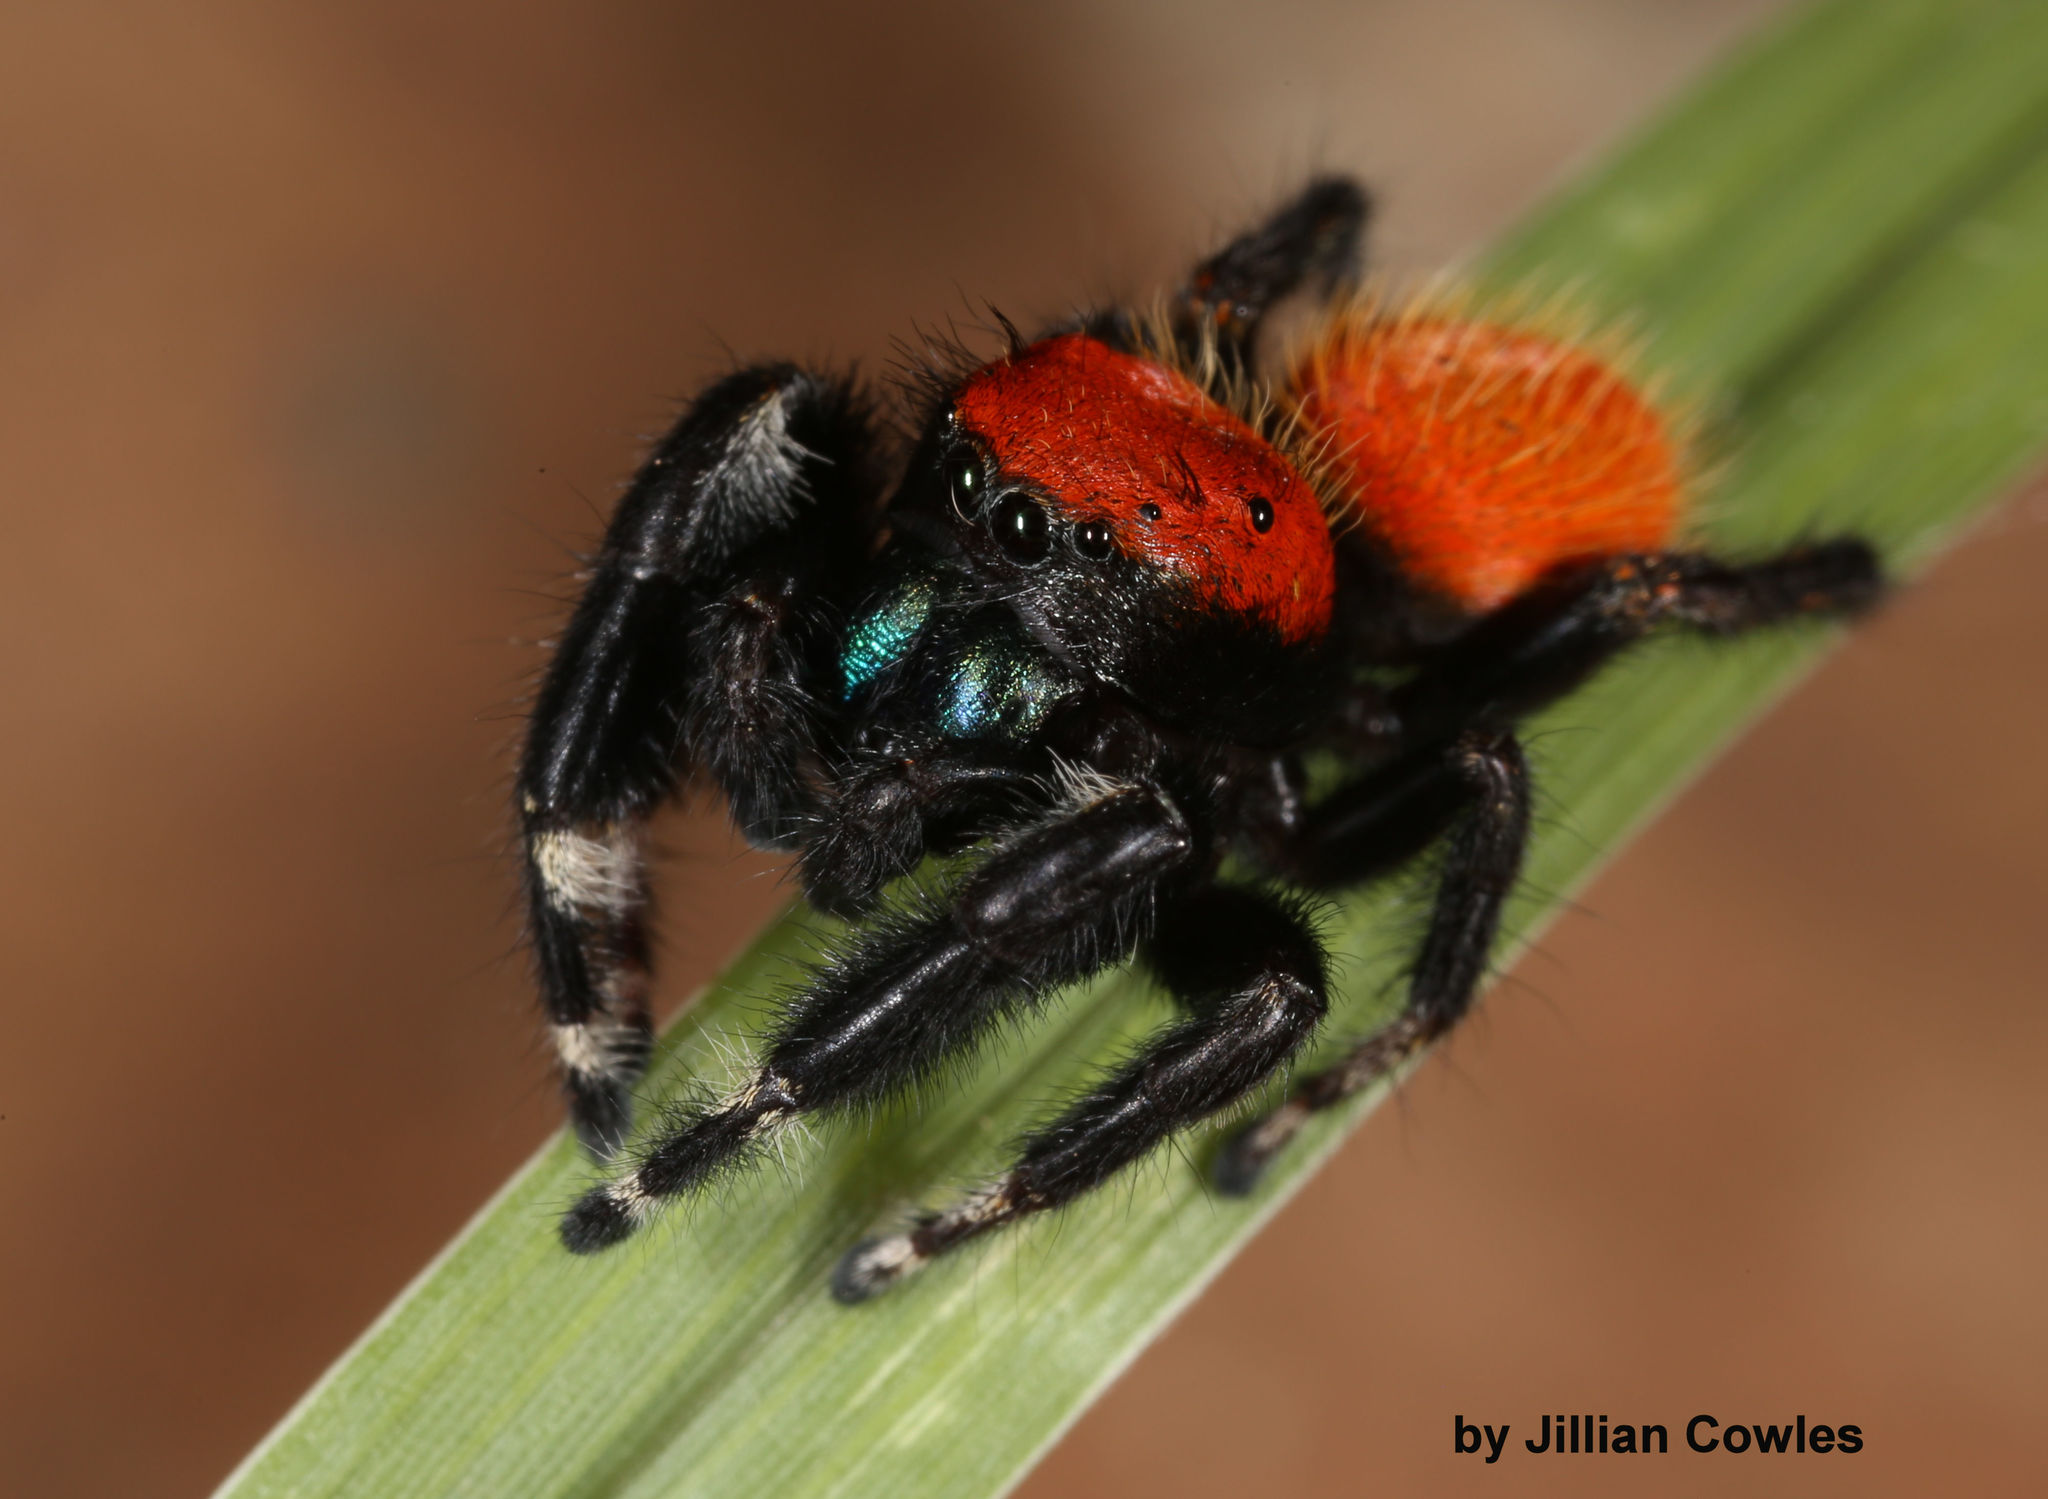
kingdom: Animalia
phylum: Arthropoda
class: Arachnida
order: Araneae
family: Salticidae
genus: Phidippus
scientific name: Phidippus apacheanus
